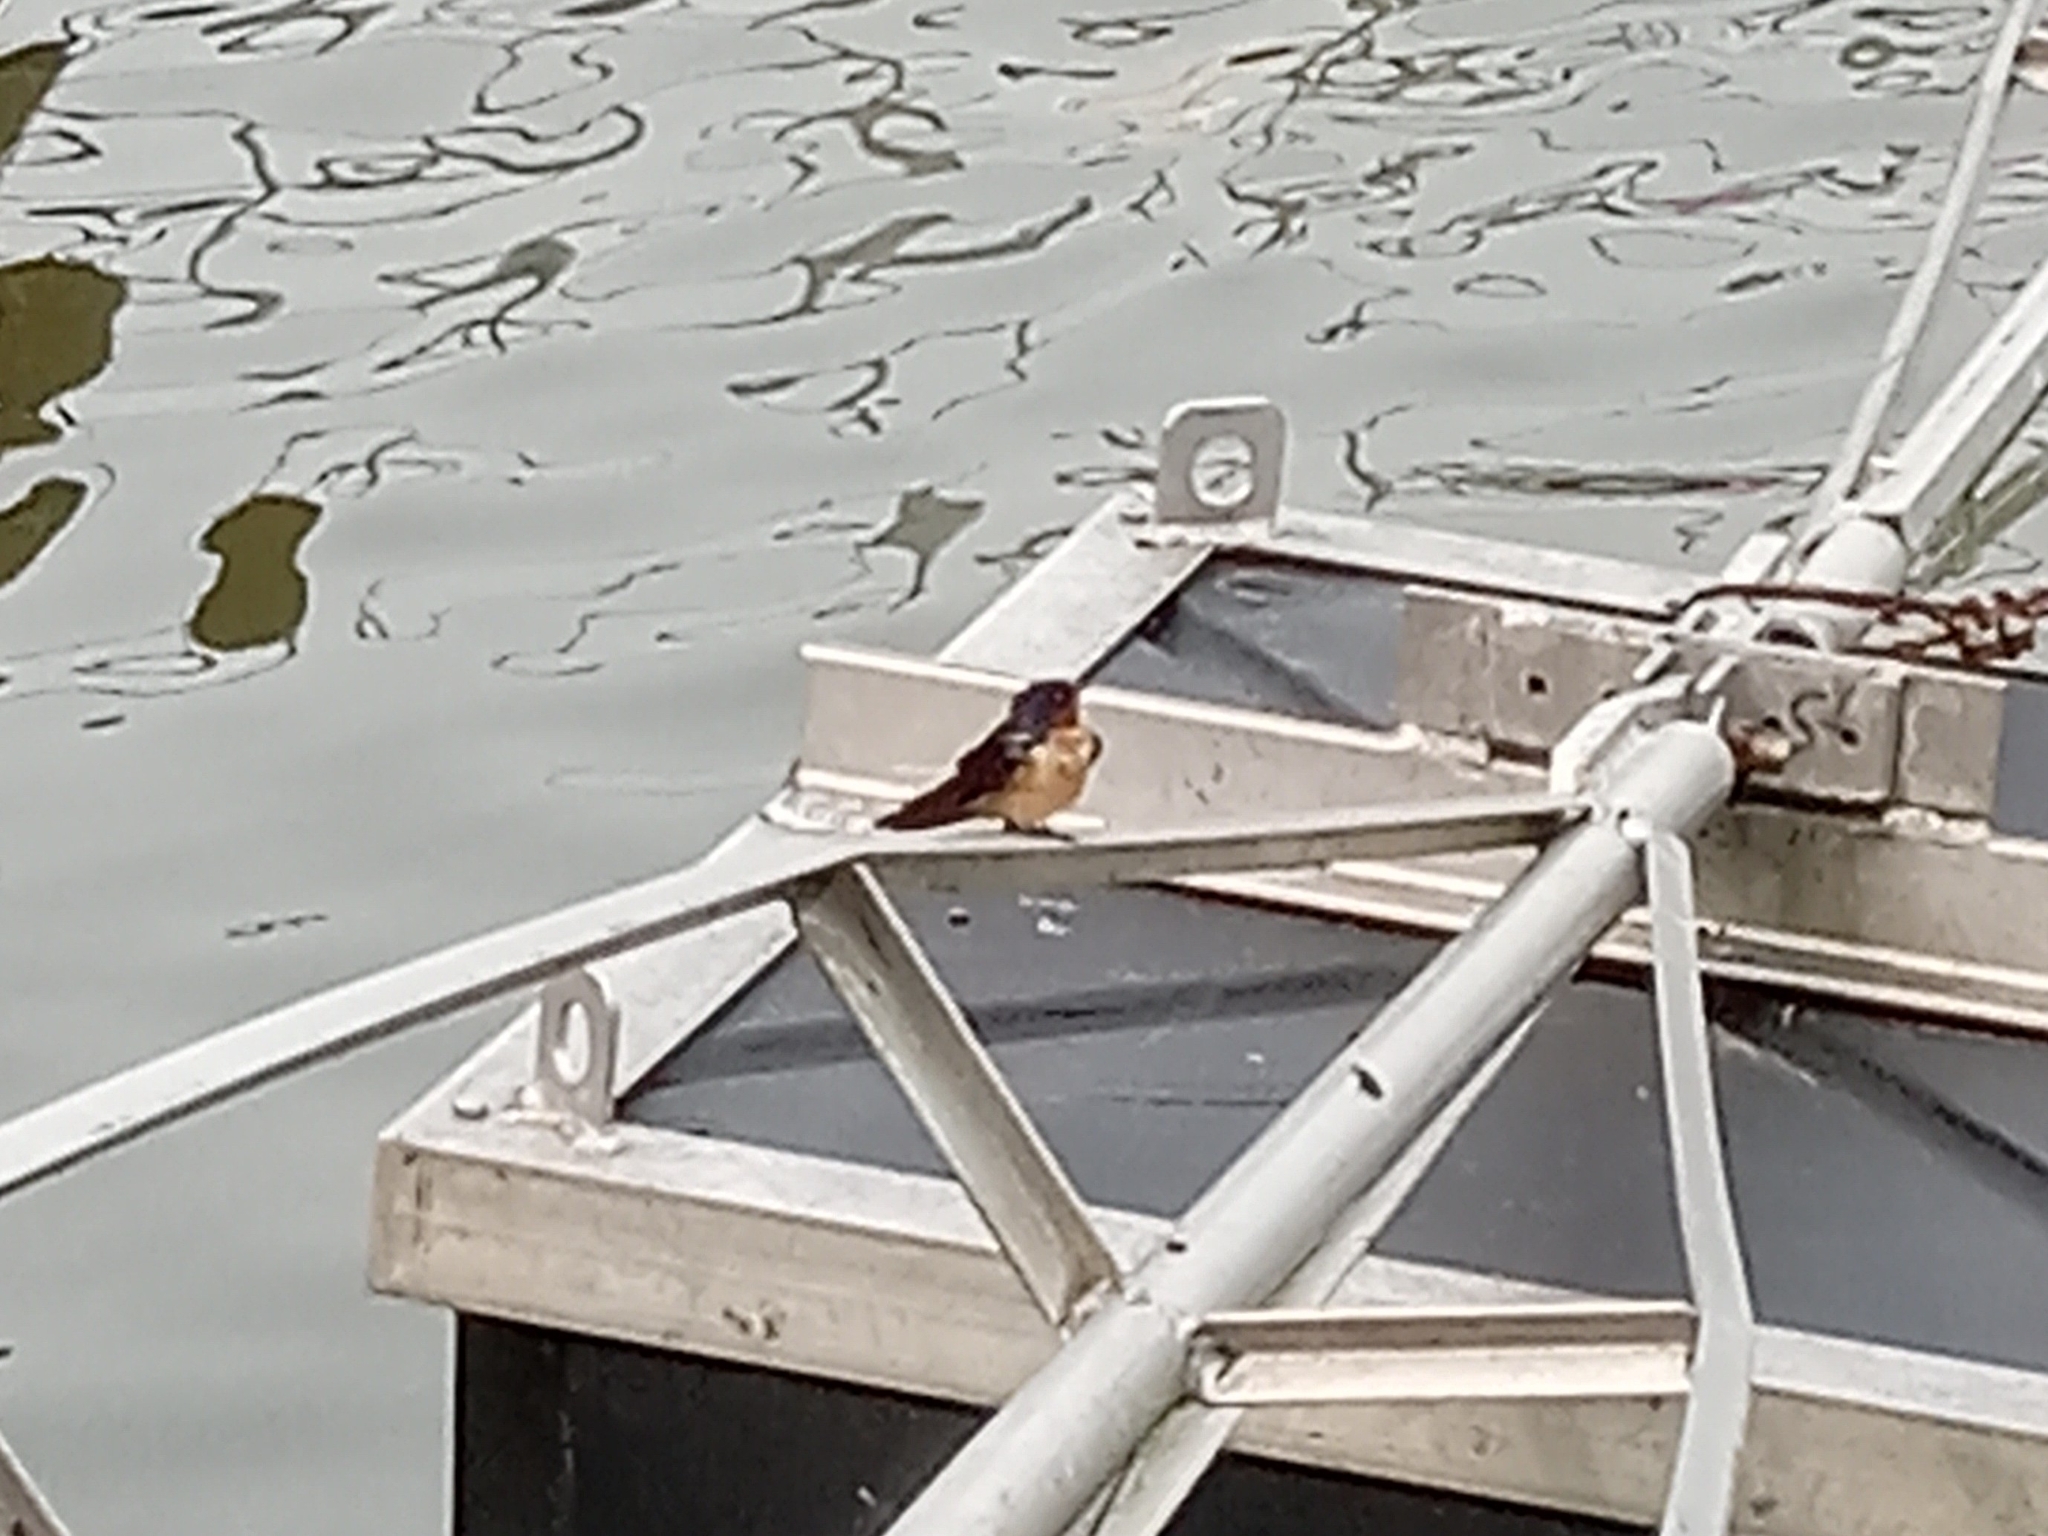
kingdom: Animalia
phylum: Chordata
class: Aves
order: Passeriformes
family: Hirundinidae
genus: Hirundo
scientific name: Hirundo rustica
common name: Barn swallow
